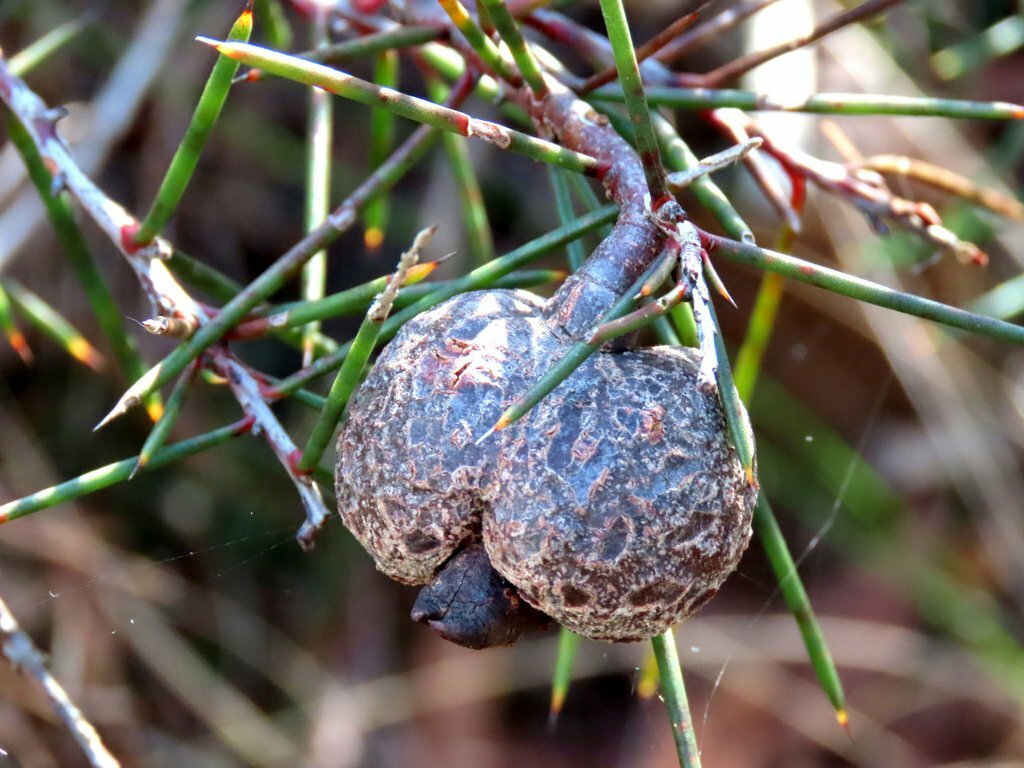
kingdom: Plantae
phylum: Tracheophyta
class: Magnoliopsida
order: Proteales
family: Proteaceae
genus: Hakea
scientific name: Hakea decurrens
